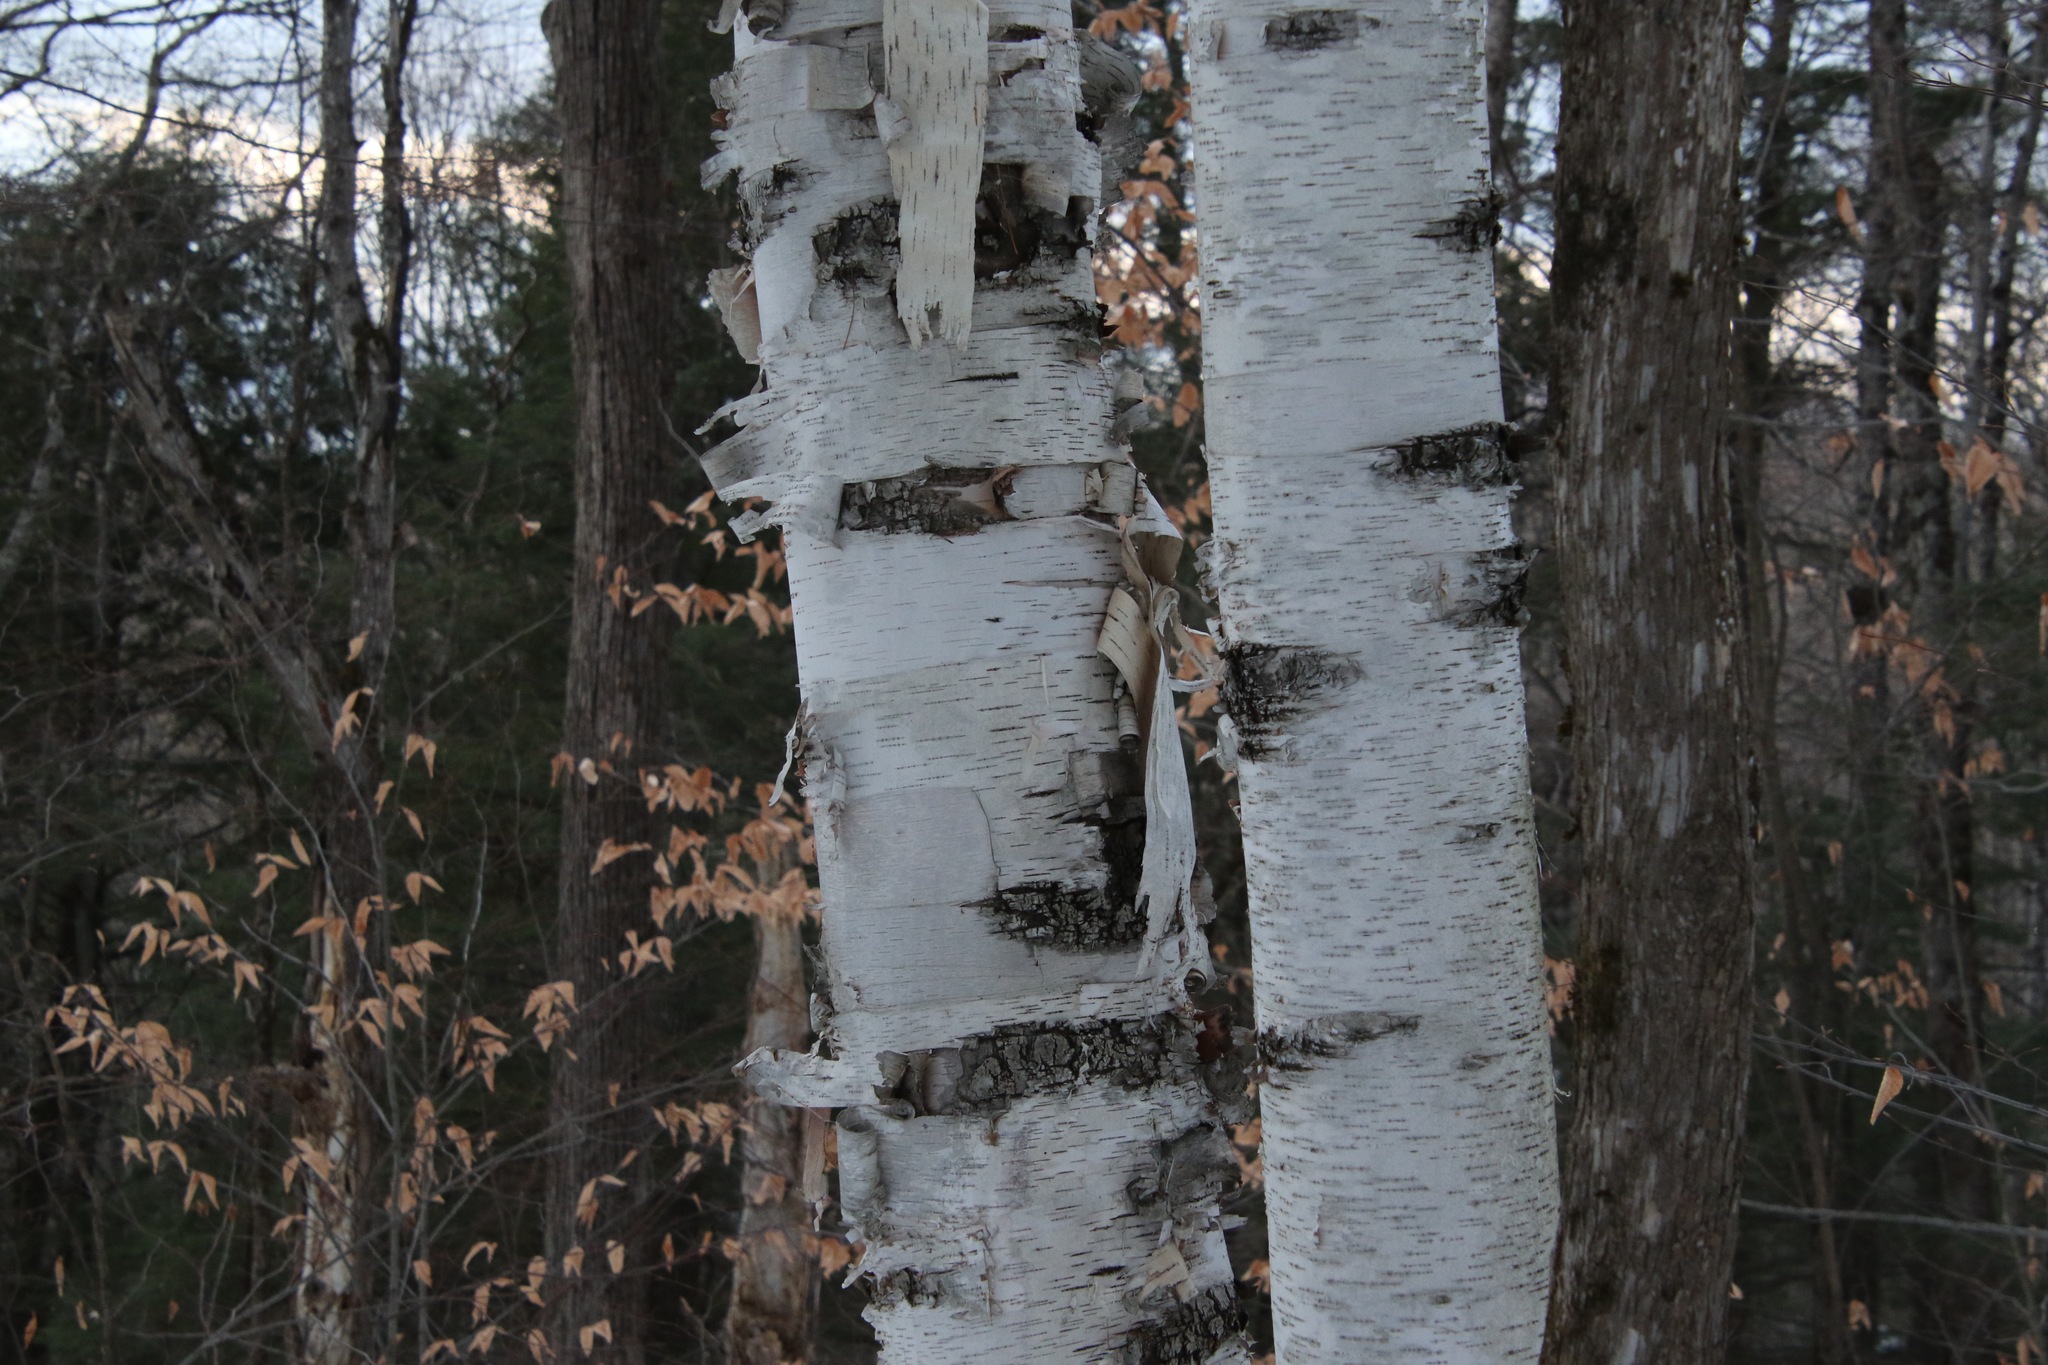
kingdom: Plantae
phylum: Tracheophyta
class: Magnoliopsida
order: Fagales
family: Betulaceae
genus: Betula
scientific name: Betula papyrifera
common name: Paper birch
